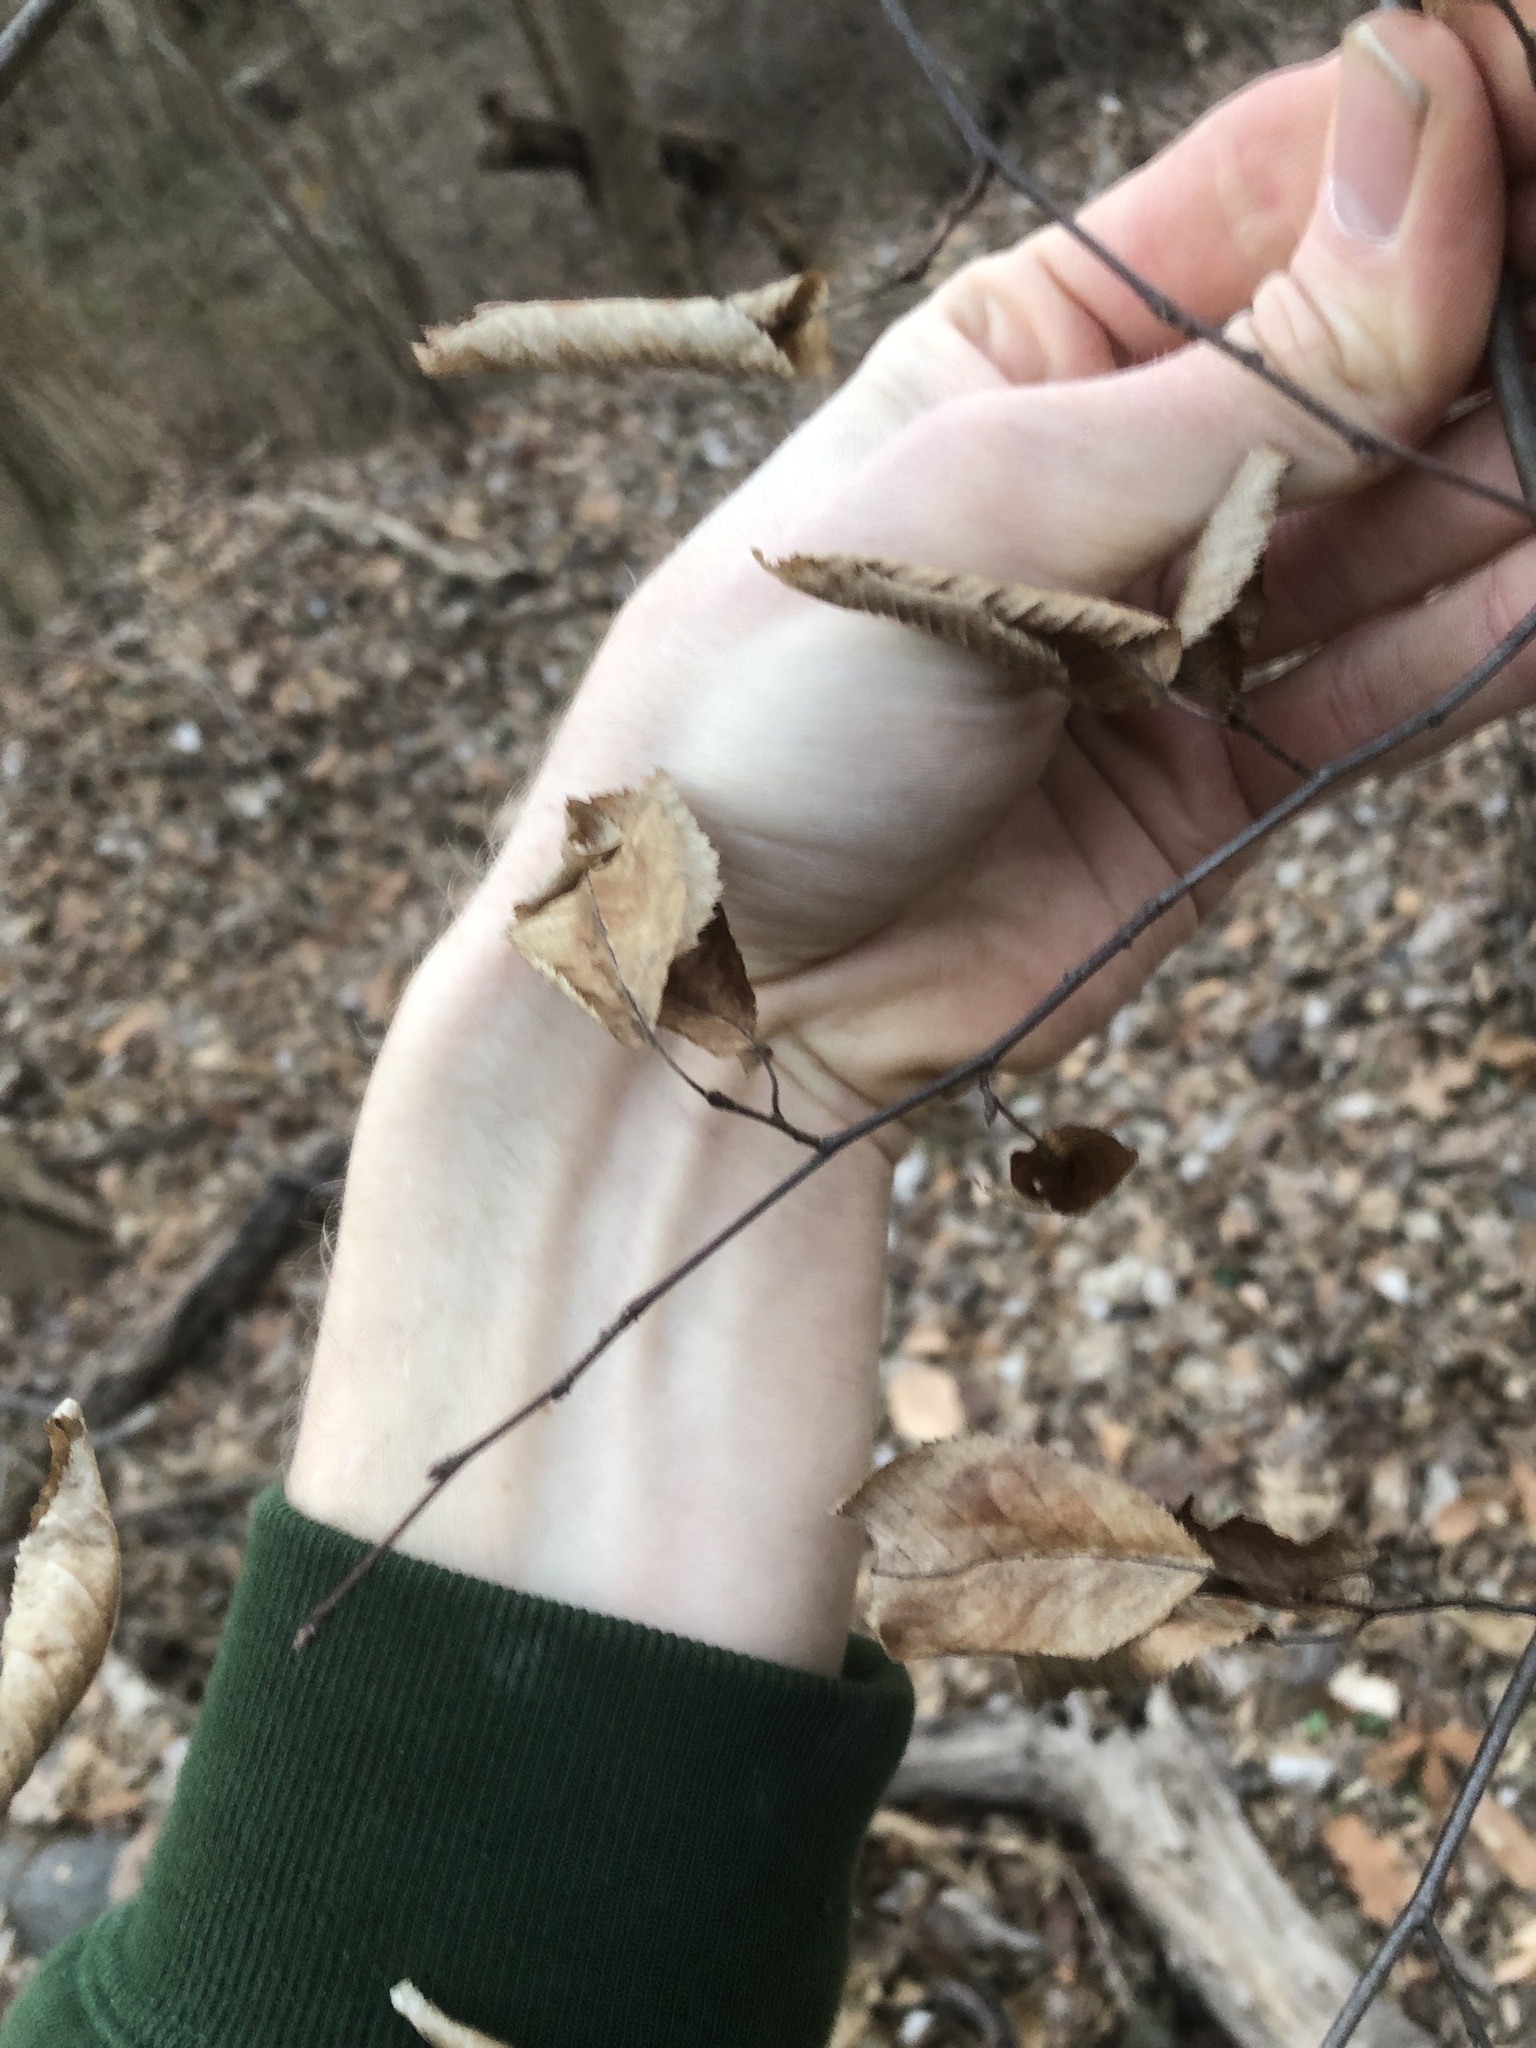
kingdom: Plantae
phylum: Tracheophyta
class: Magnoliopsida
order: Fagales
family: Betulaceae
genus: Carpinus
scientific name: Carpinus caroliniana
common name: American hornbeam
